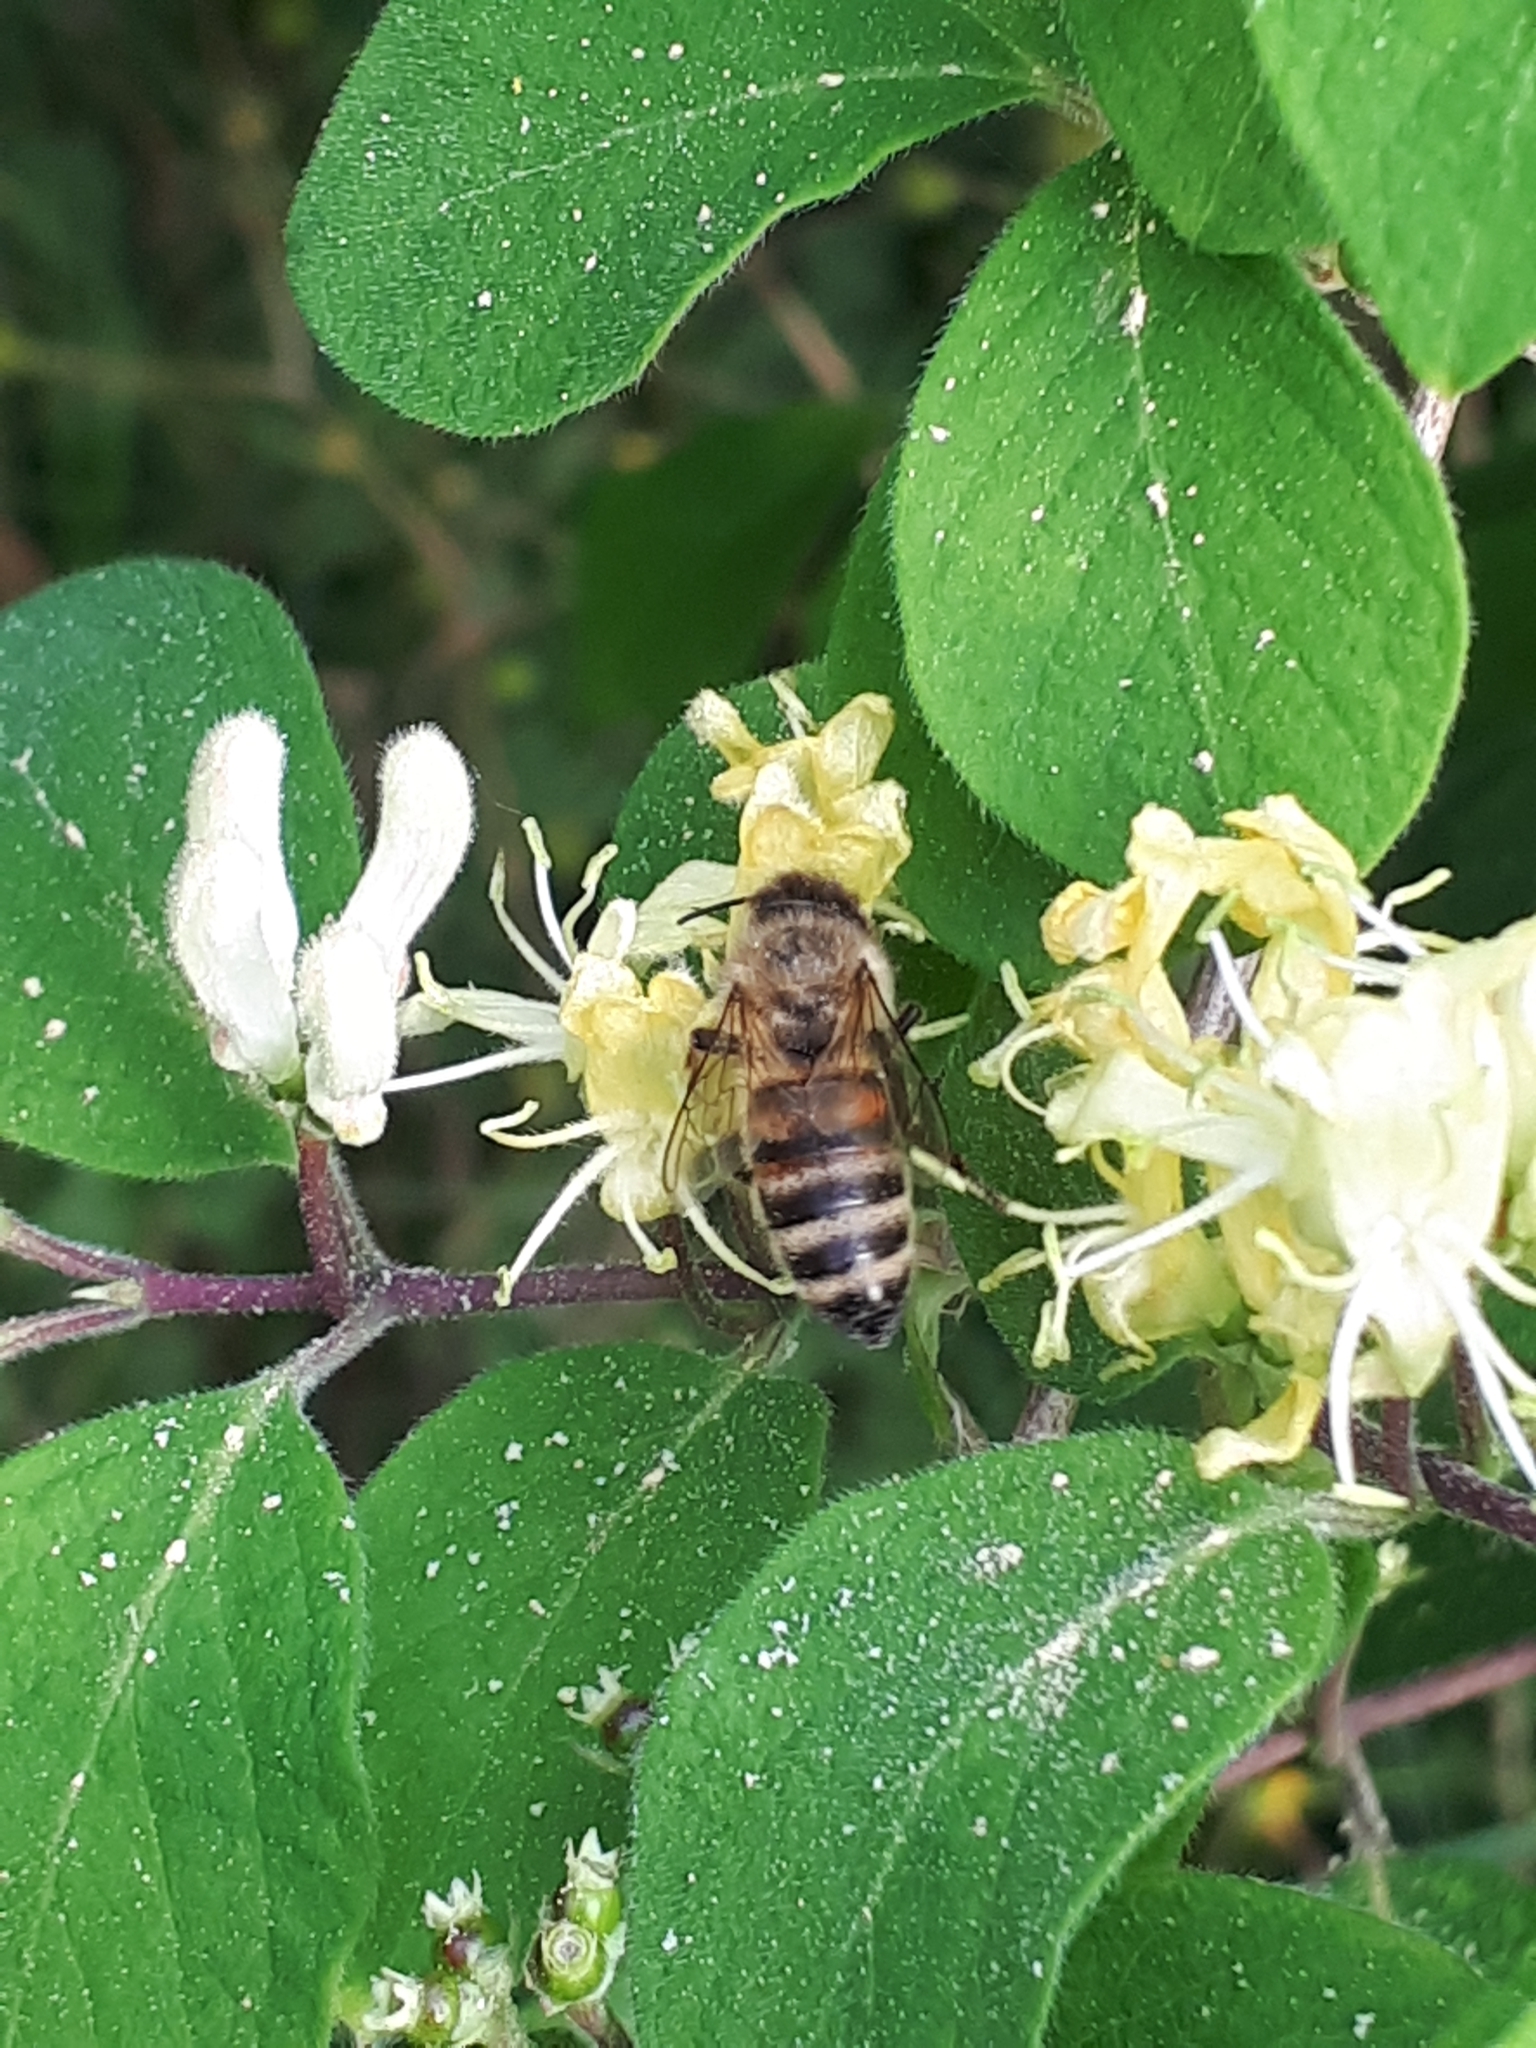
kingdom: Animalia
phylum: Arthropoda
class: Insecta
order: Hymenoptera
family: Apidae
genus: Apis
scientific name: Apis mellifera
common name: Honey bee
